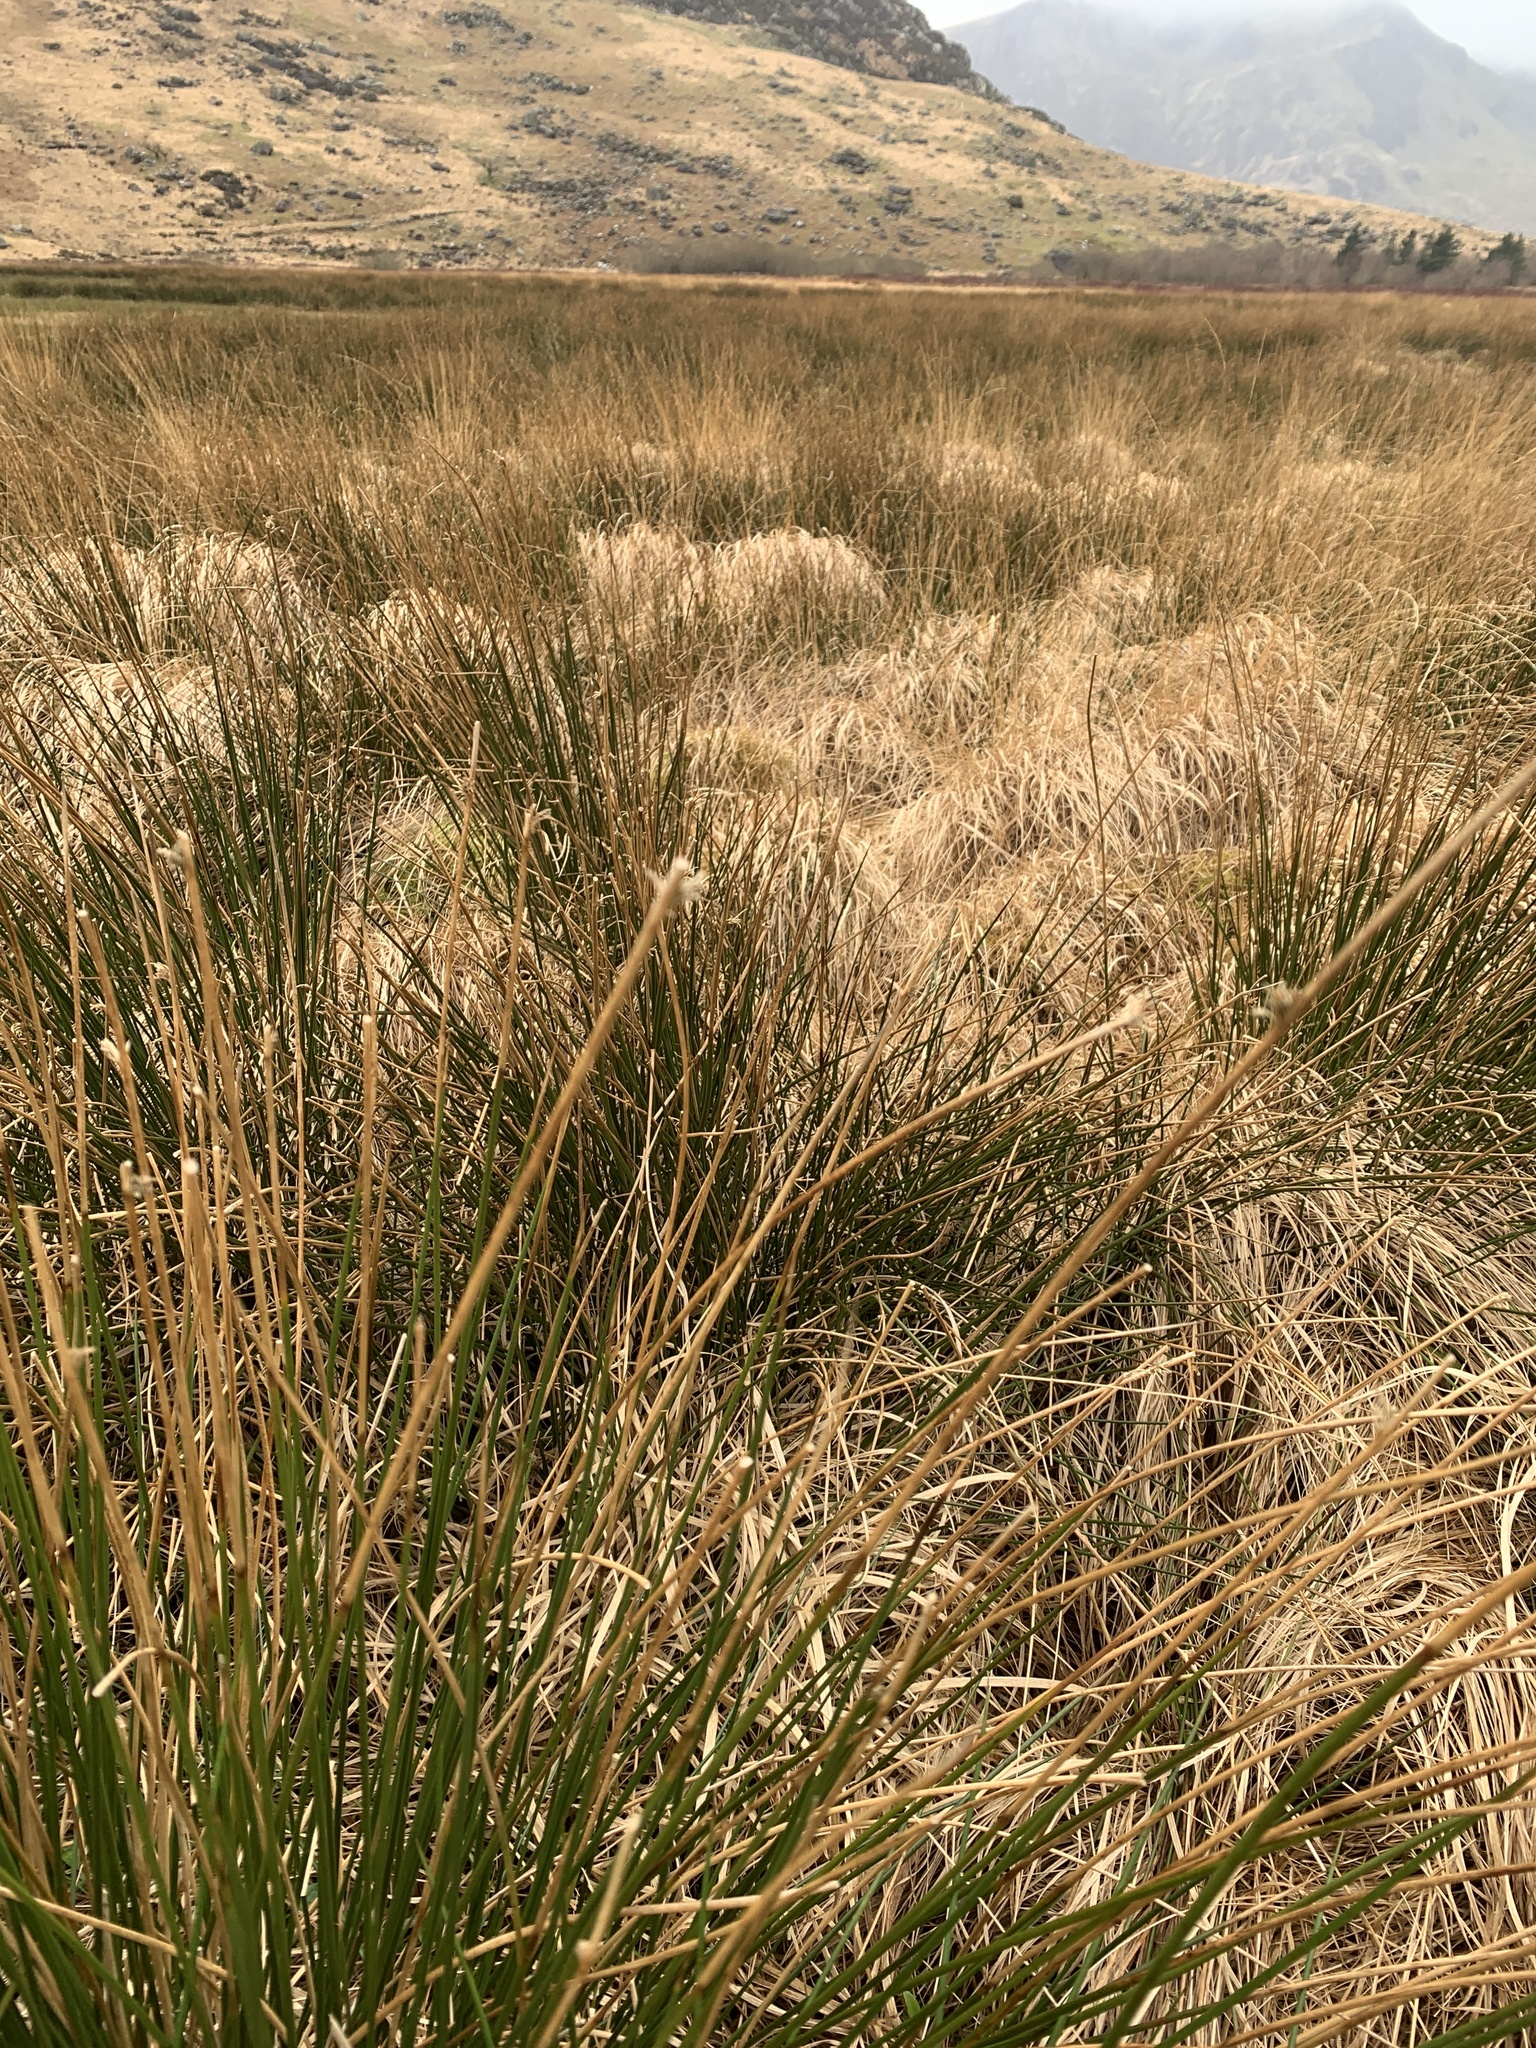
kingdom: Plantae
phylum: Tracheophyta
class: Liliopsida
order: Poales
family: Juncaceae
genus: Juncus
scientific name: Juncus effusus
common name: Soft rush
